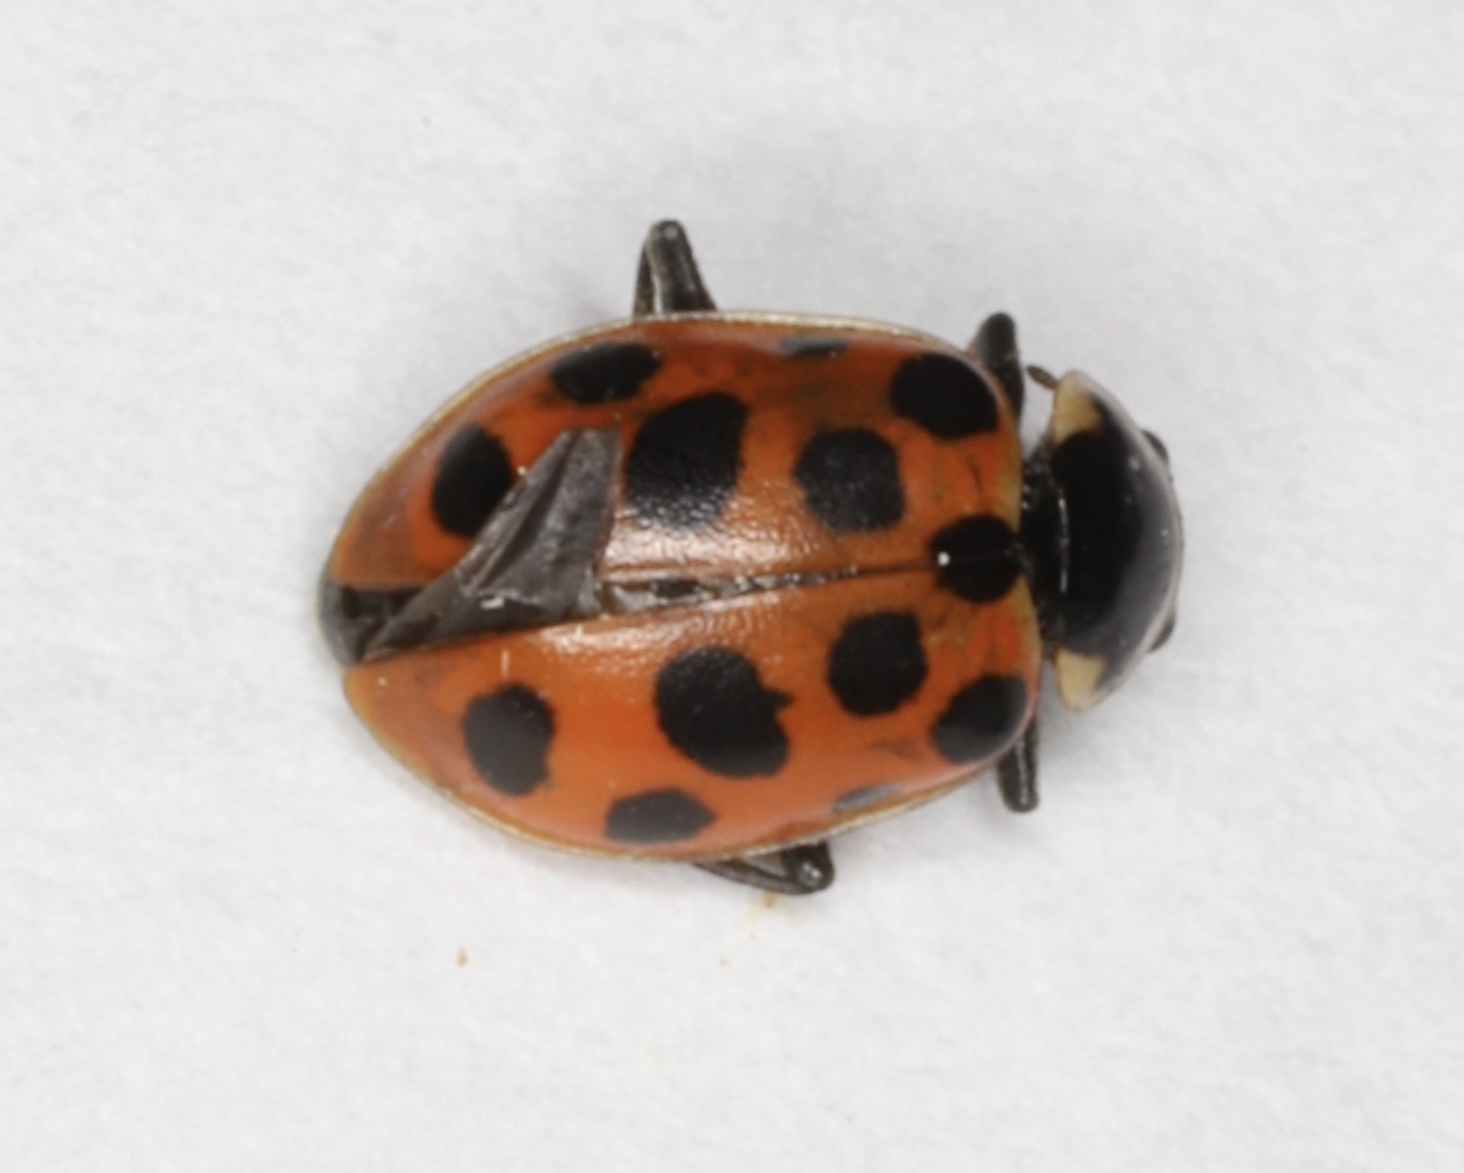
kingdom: Animalia
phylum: Arthropoda
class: Insecta
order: Coleoptera
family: Coccinellidae
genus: Hippodamia
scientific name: Hippodamia tredecimpunctata
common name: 13-spot ladybird
